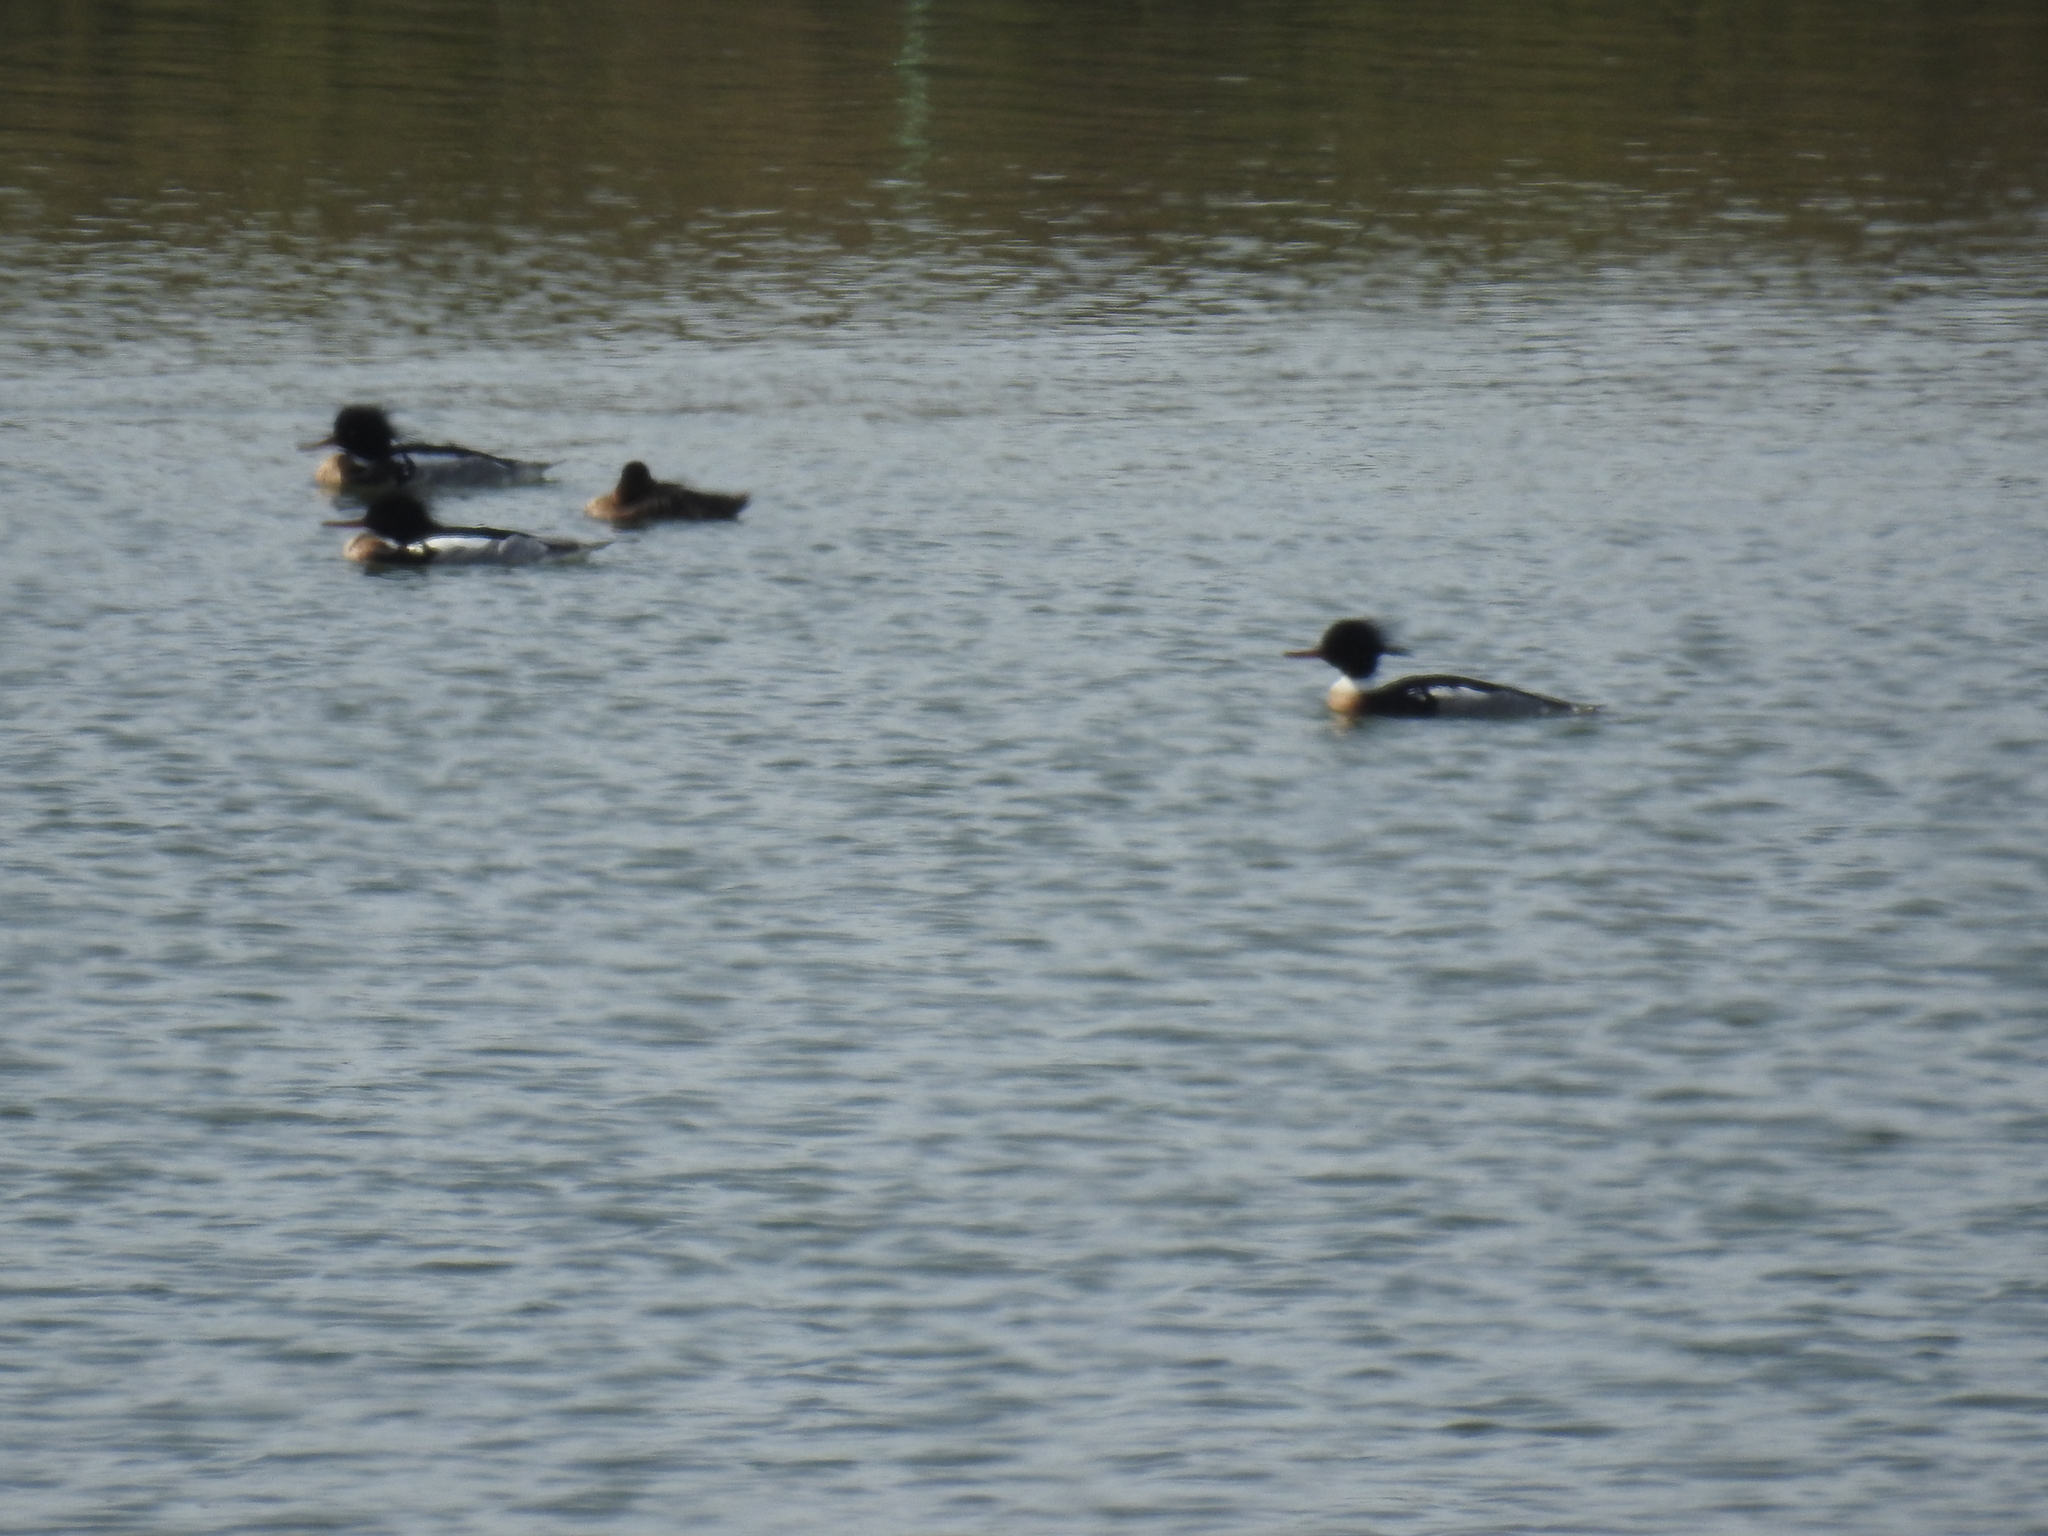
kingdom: Animalia
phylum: Chordata
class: Aves
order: Anseriformes
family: Anatidae
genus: Mergus
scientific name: Mergus serrator
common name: Red-breasted merganser
